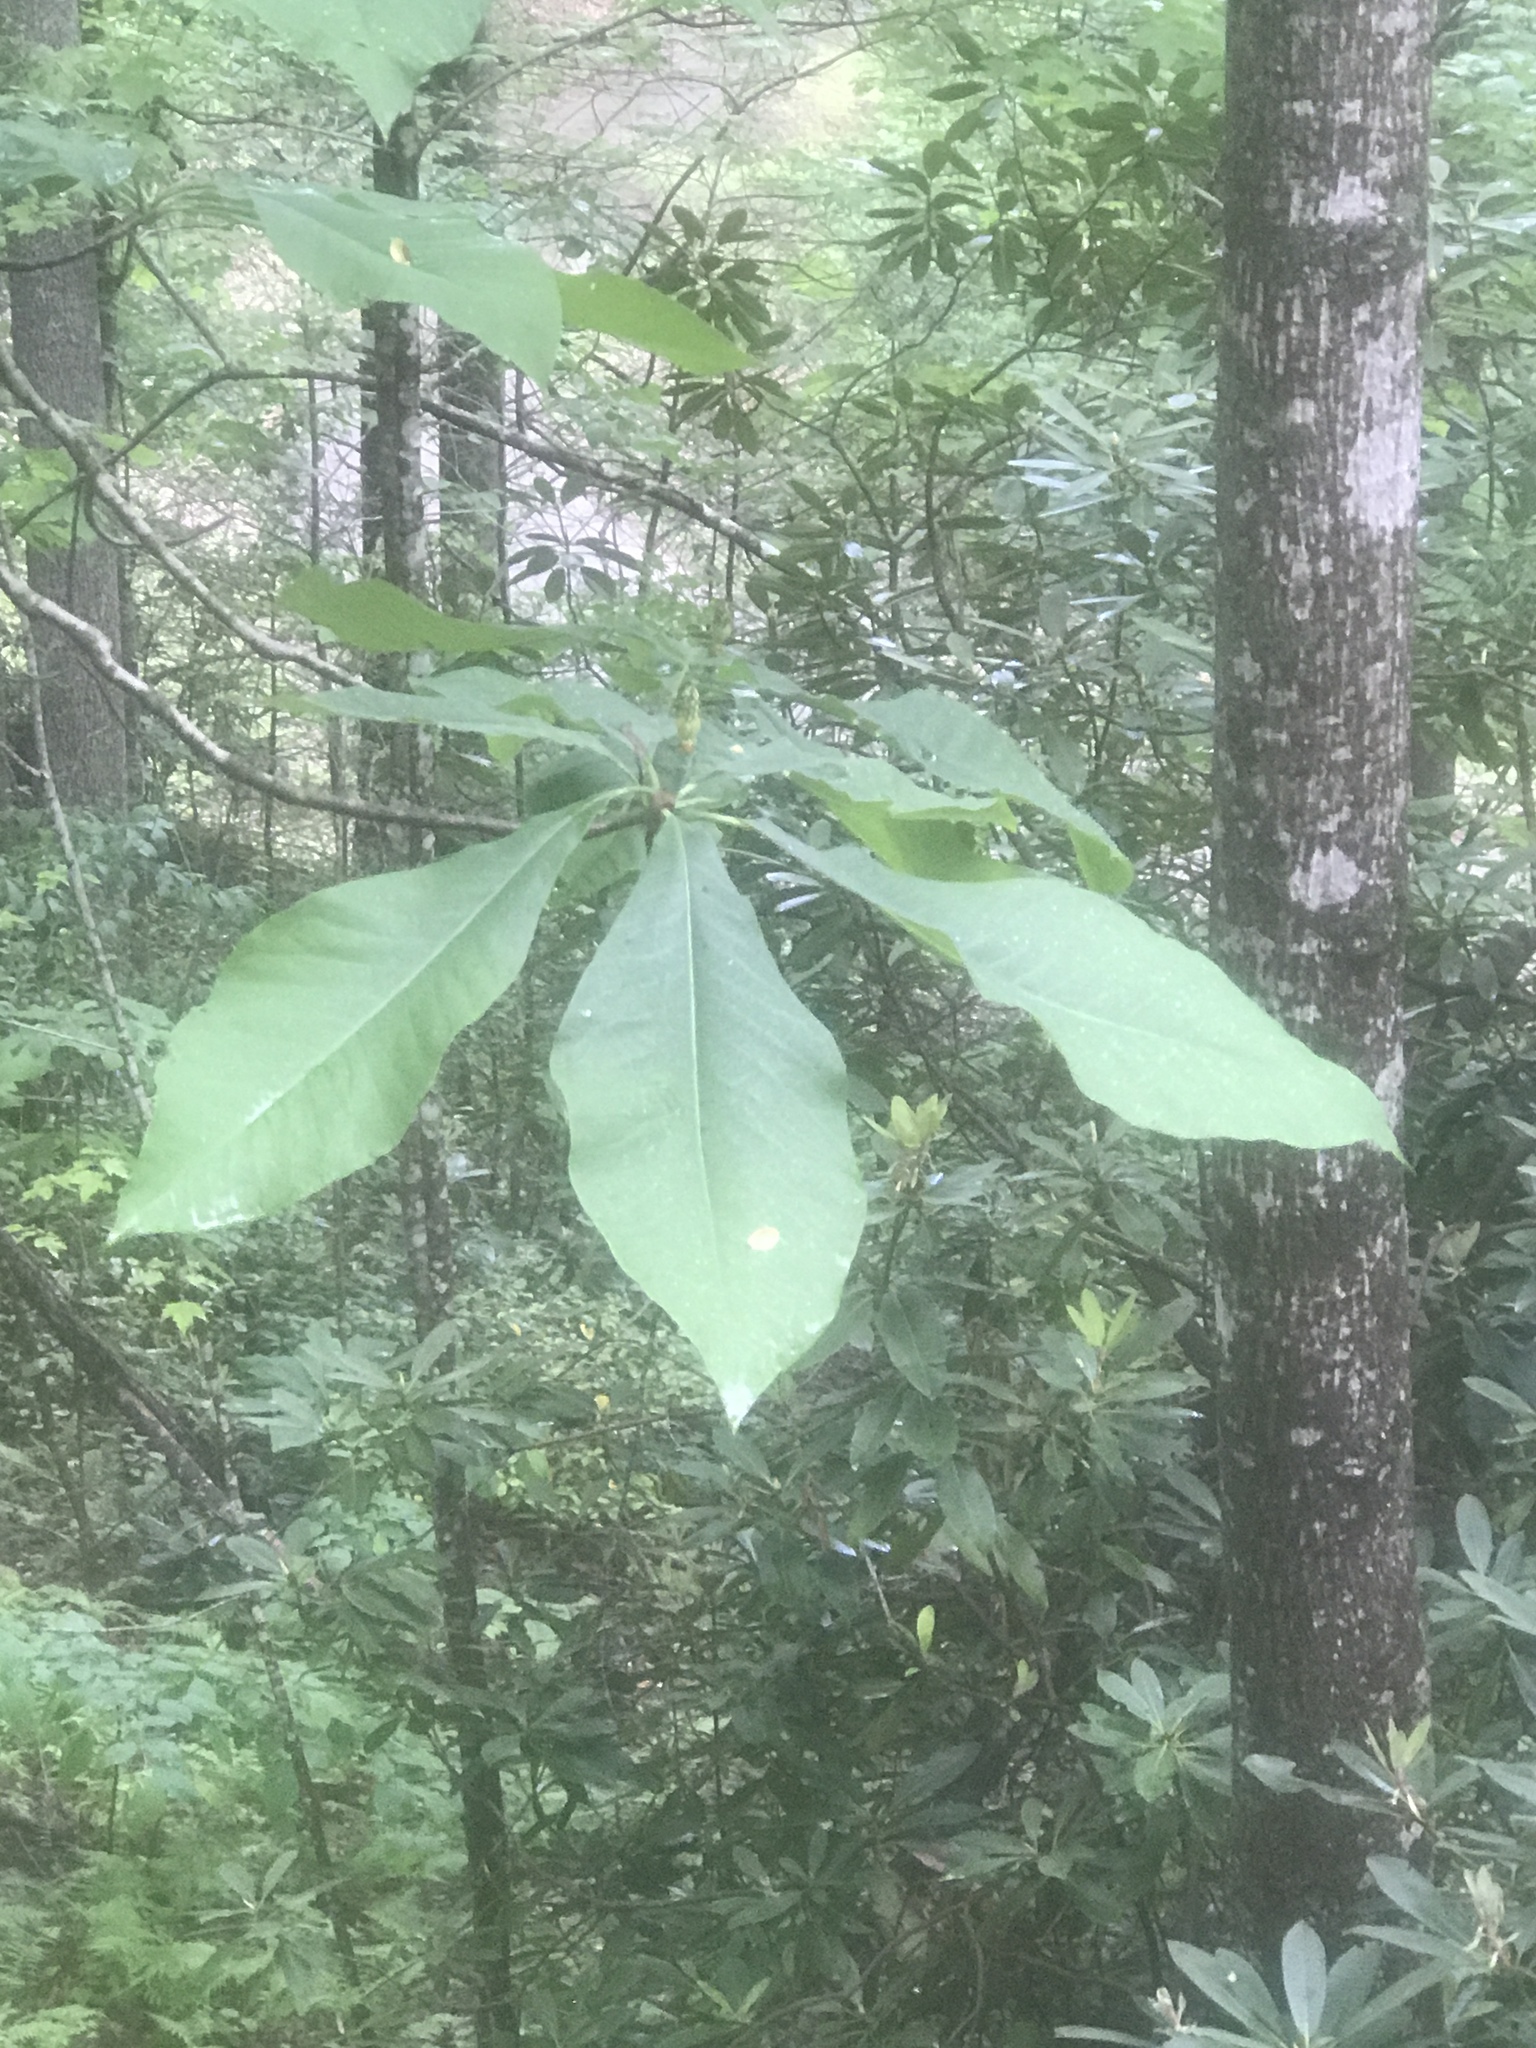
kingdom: Plantae
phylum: Tracheophyta
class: Magnoliopsida
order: Magnoliales
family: Magnoliaceae
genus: Magnolia
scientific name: Magnolia tripetala
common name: Umbrella magnolia
